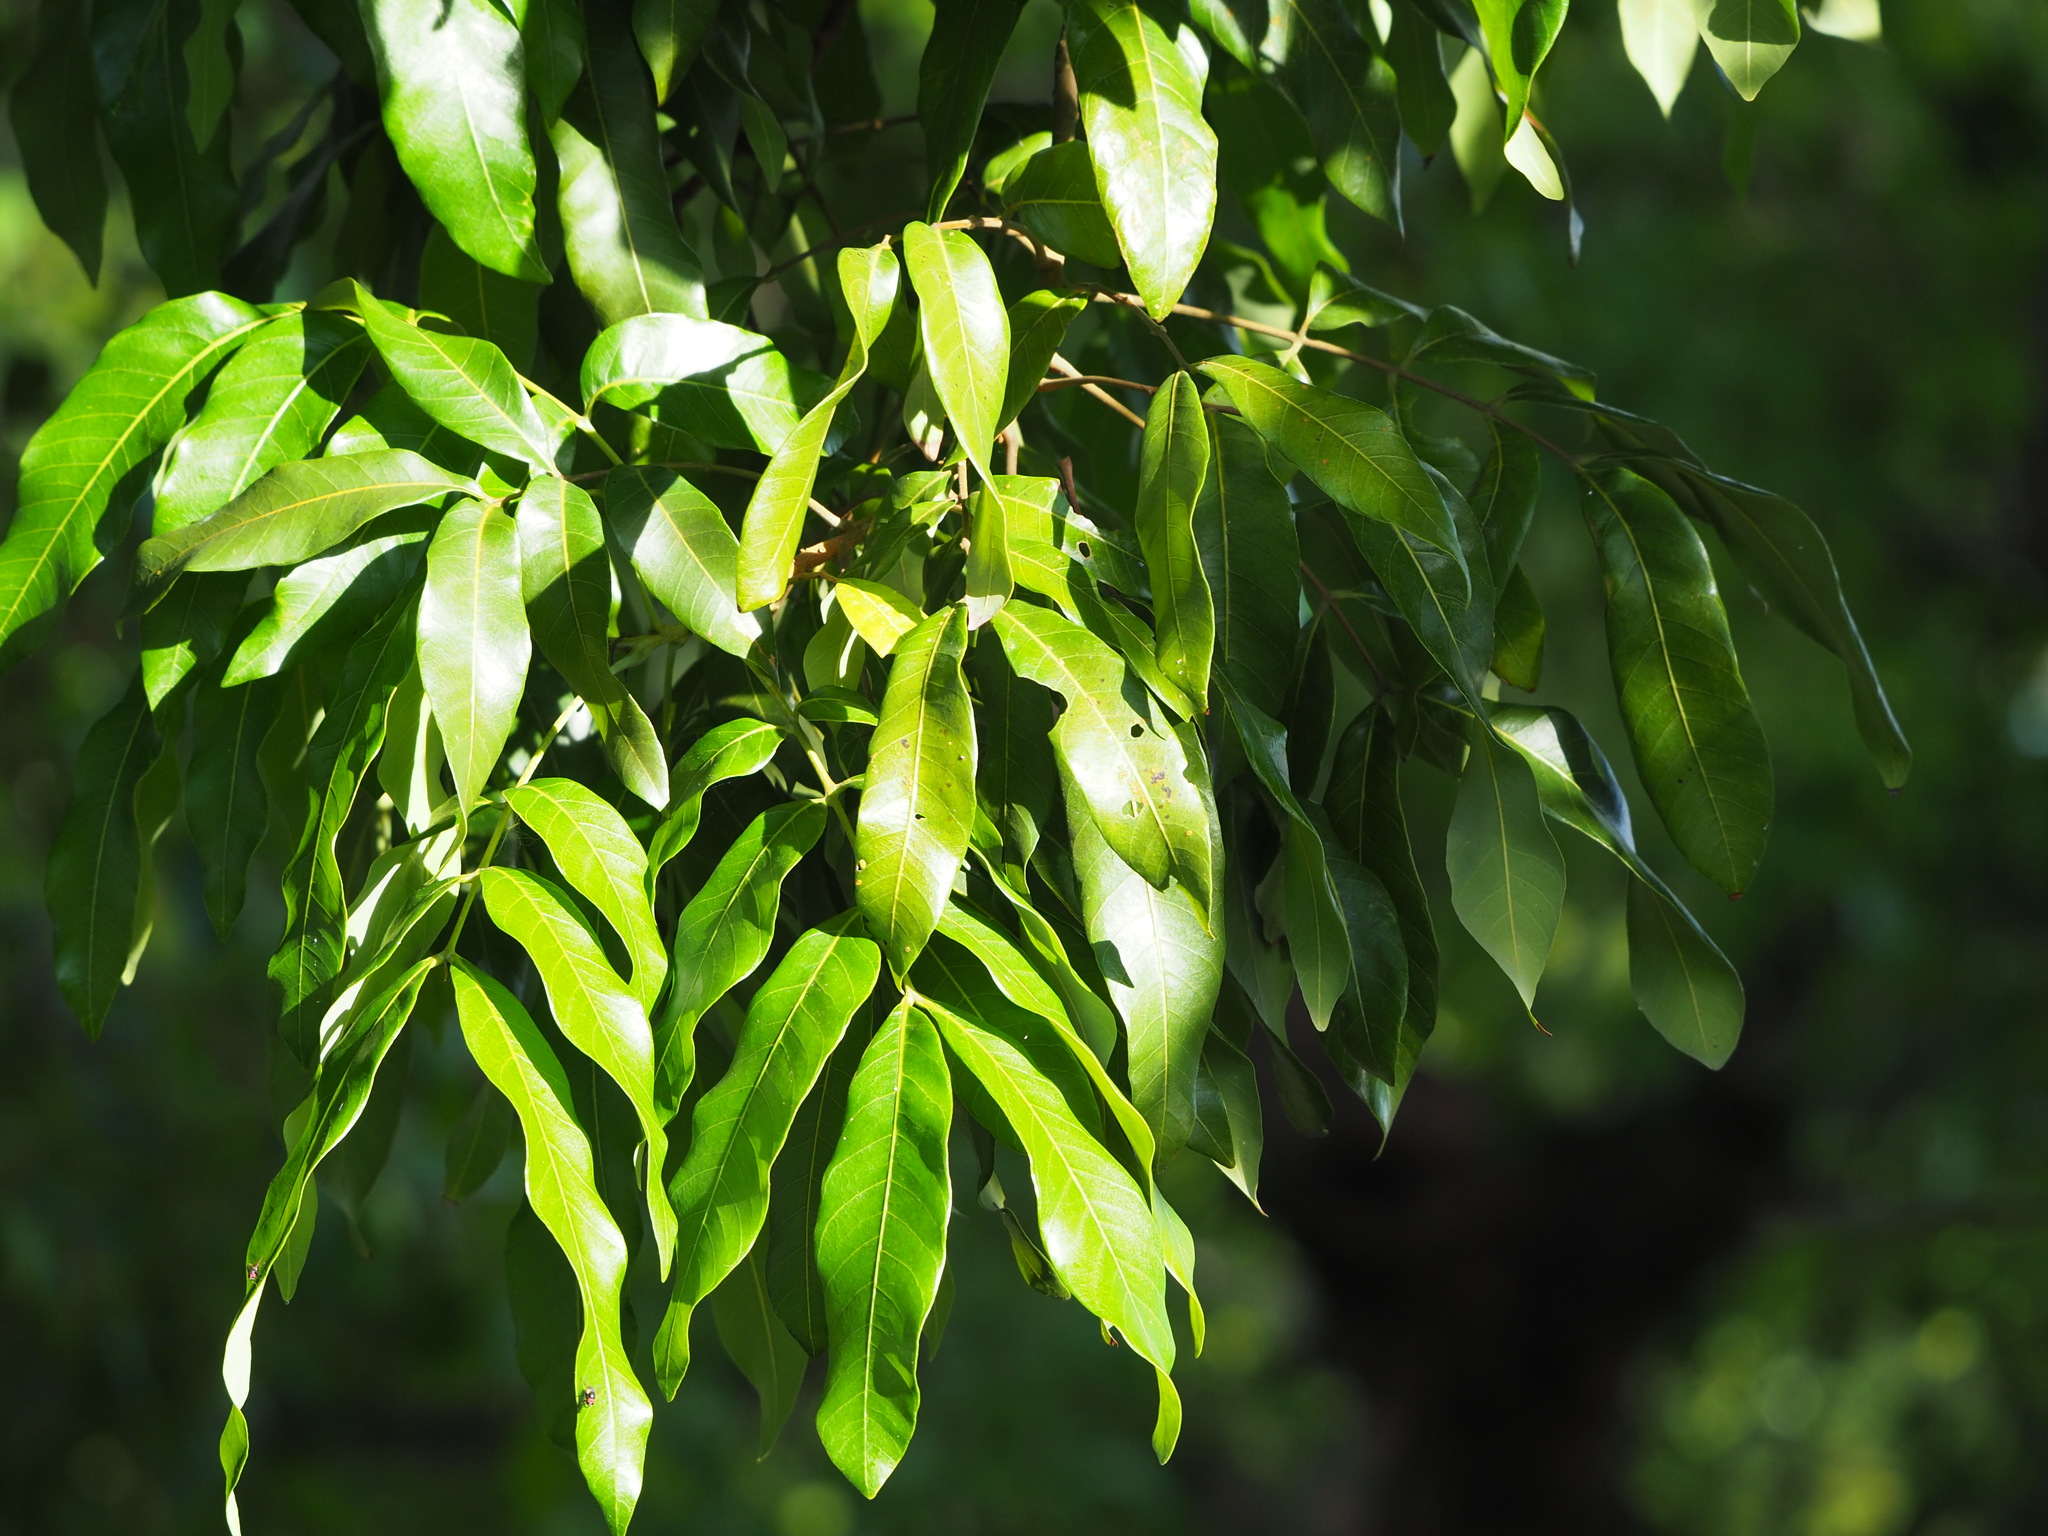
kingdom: Plantae
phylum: Tracheophyta
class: Magnoliopsida
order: Sapindales
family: Sapindaceae
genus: Dimocarpus
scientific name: Dimocarpus longan
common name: Longan
